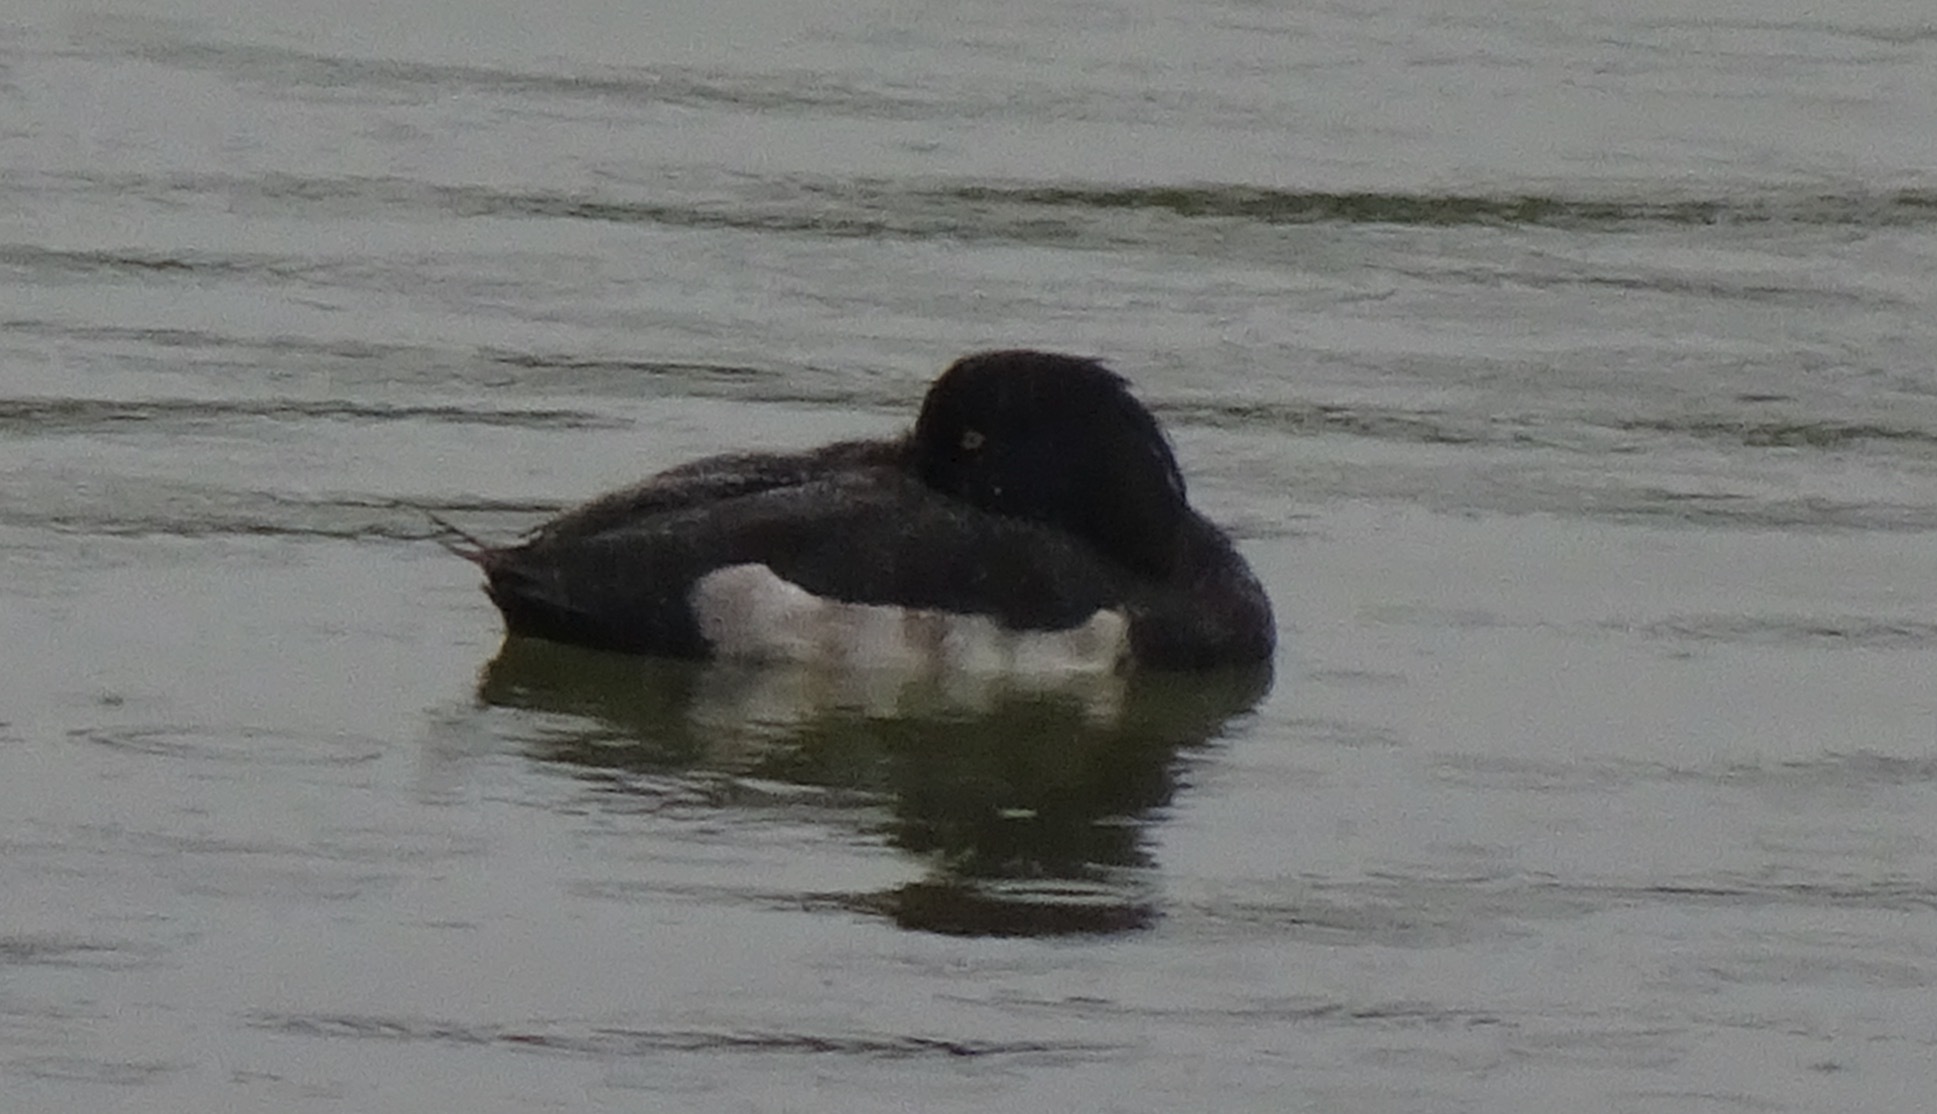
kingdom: Animalia
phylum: Chordata
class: Aves
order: Anseriformes
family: Anatidae
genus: Aythya
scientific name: Aythya fuligula
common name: Tufted duck
